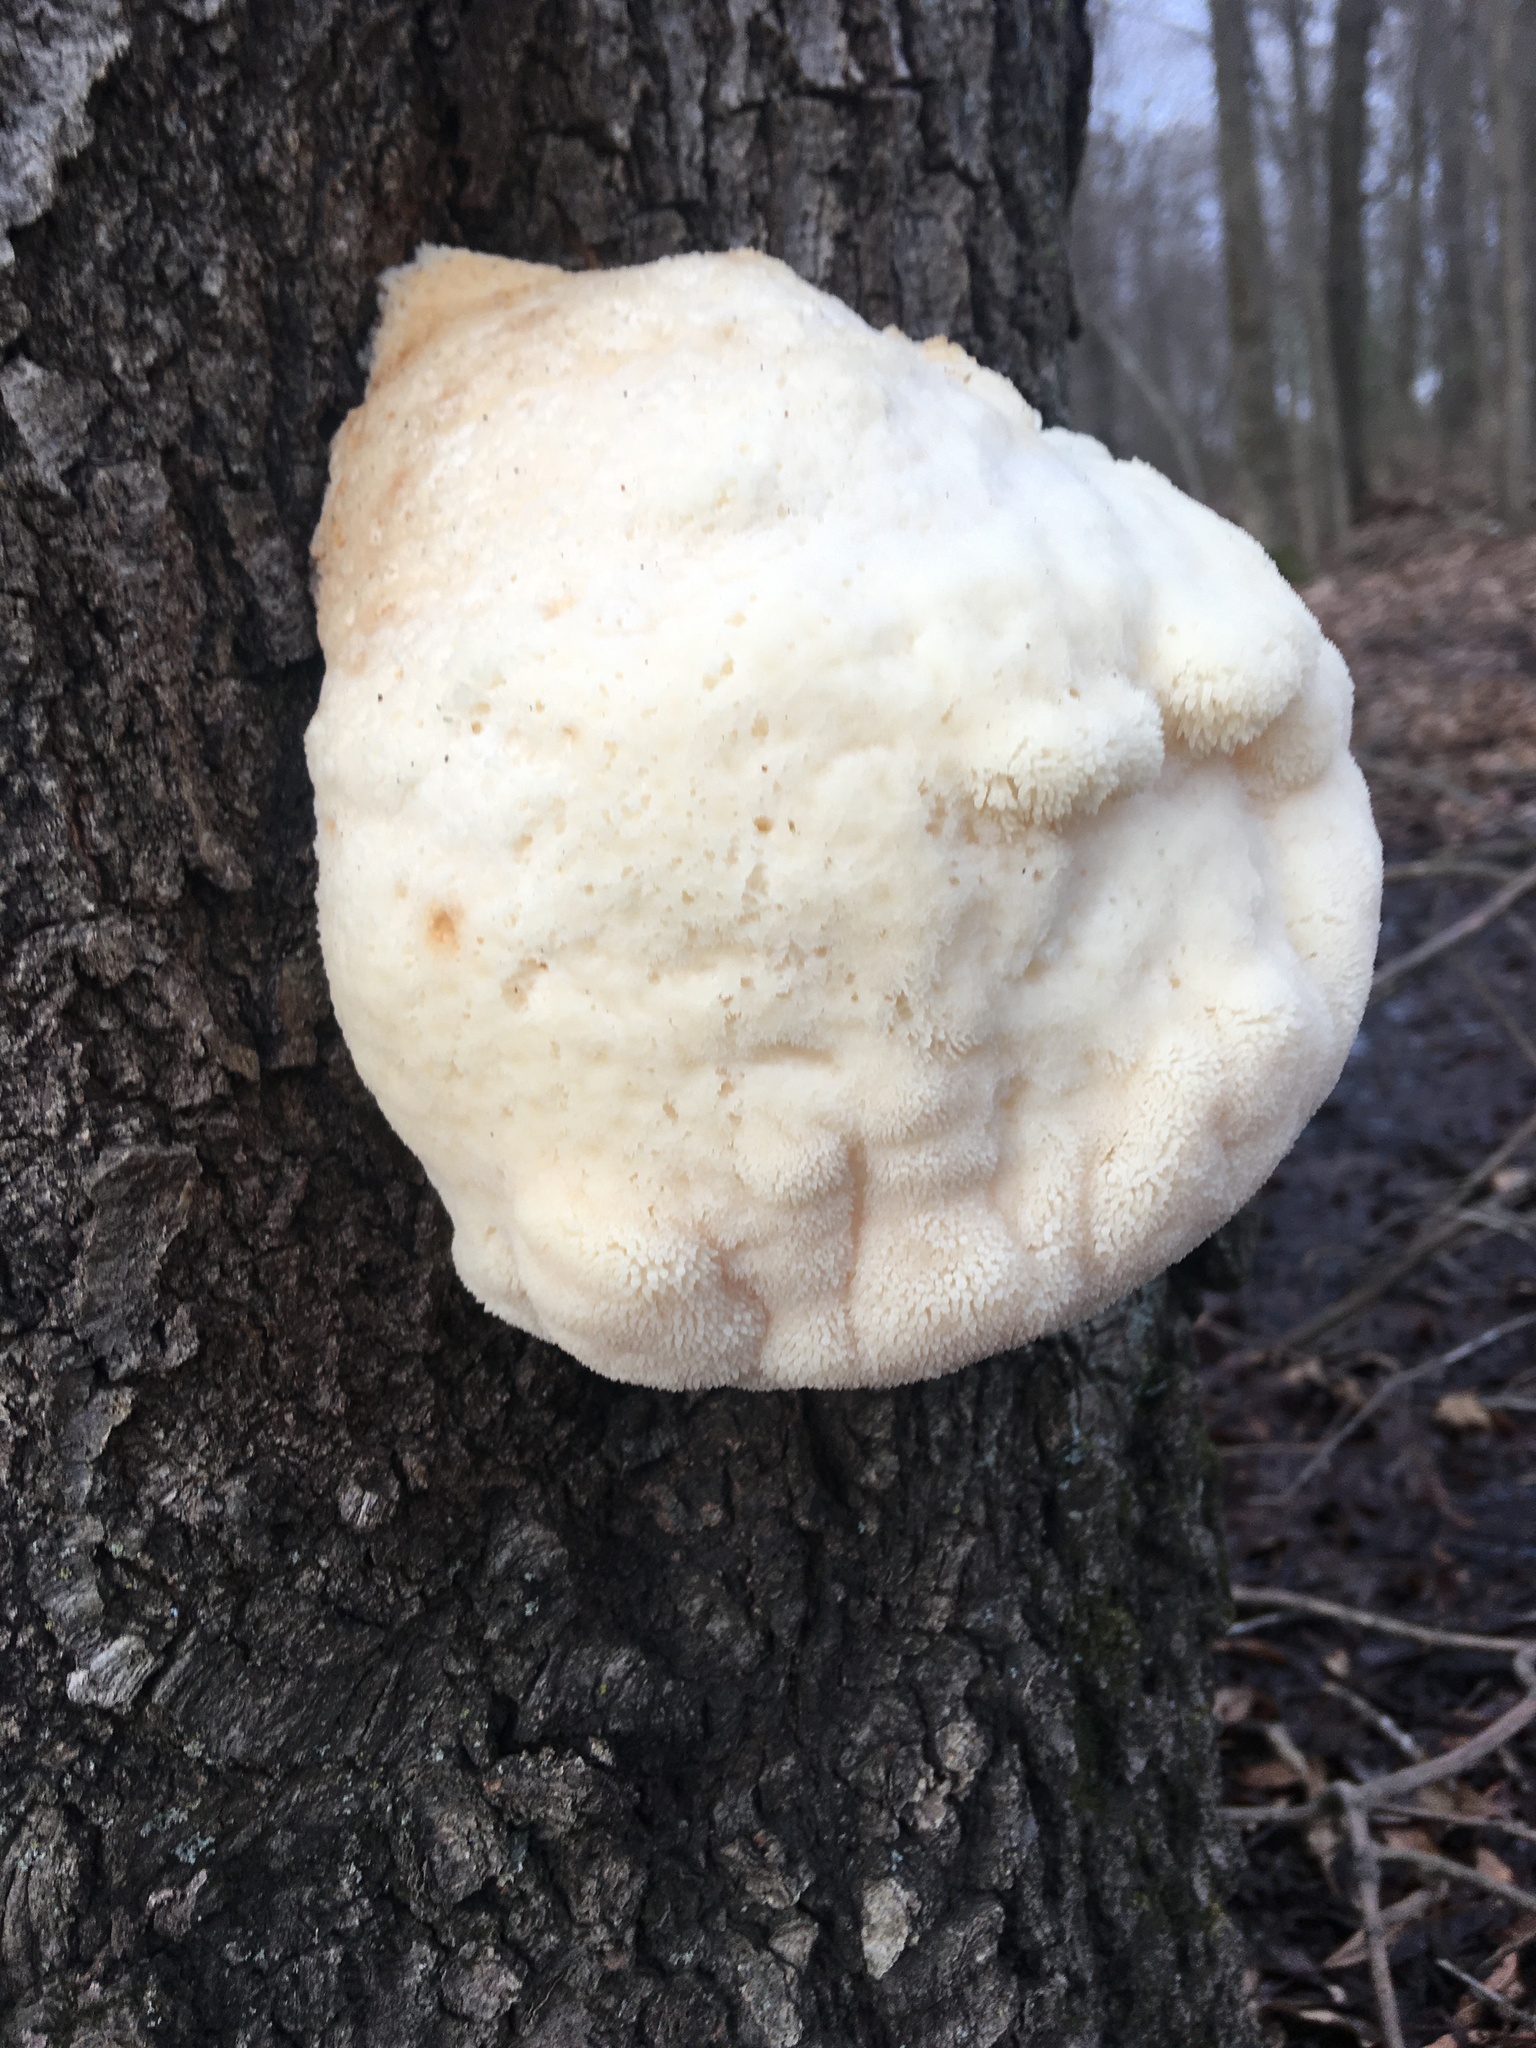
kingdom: Fungi
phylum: Basidiomycota
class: Agaricomycetes
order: Russulales
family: Hericiaceae
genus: Hericium
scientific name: Hericium erinaceus
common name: Bearded tooth
